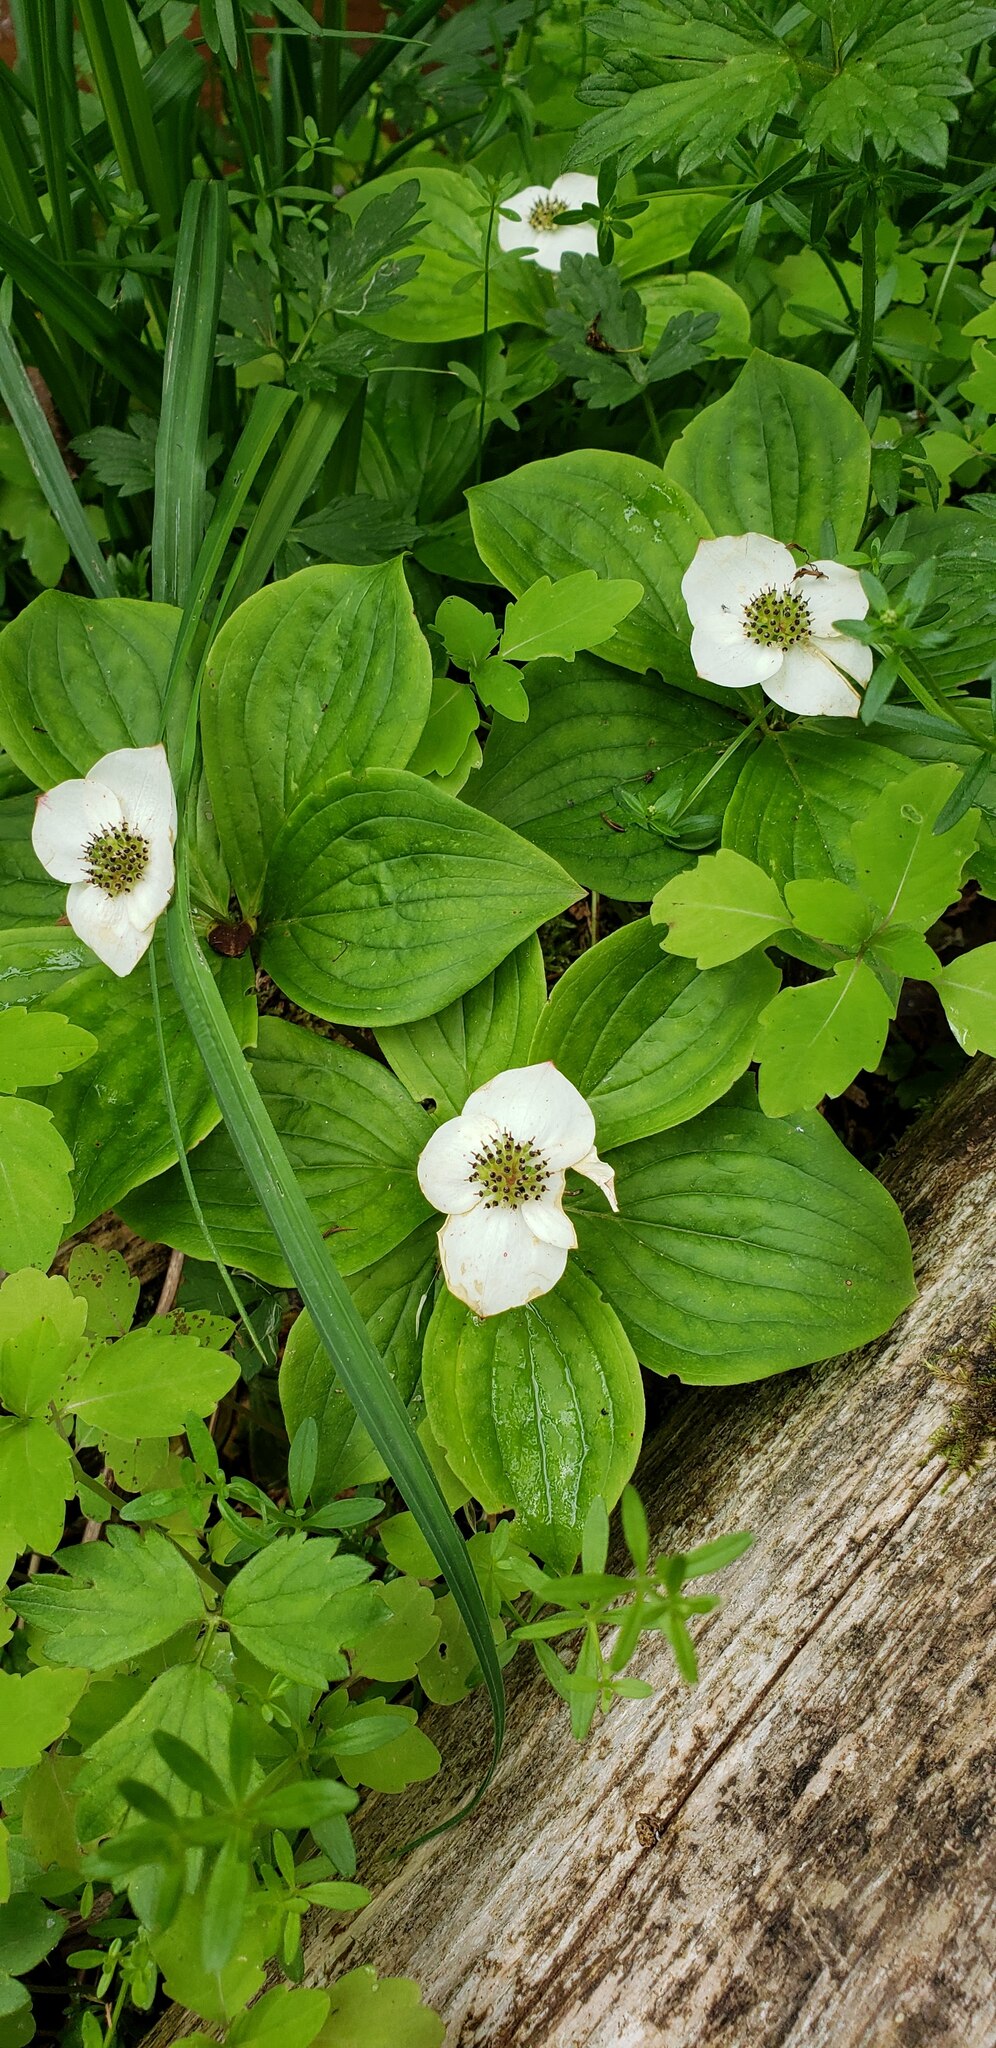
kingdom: Plantae
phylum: Tracheophyta
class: Magnoliopsida
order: Cornales
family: Cornaceae
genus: Cornus
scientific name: Cornus canadensis
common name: Creeping dogwood
